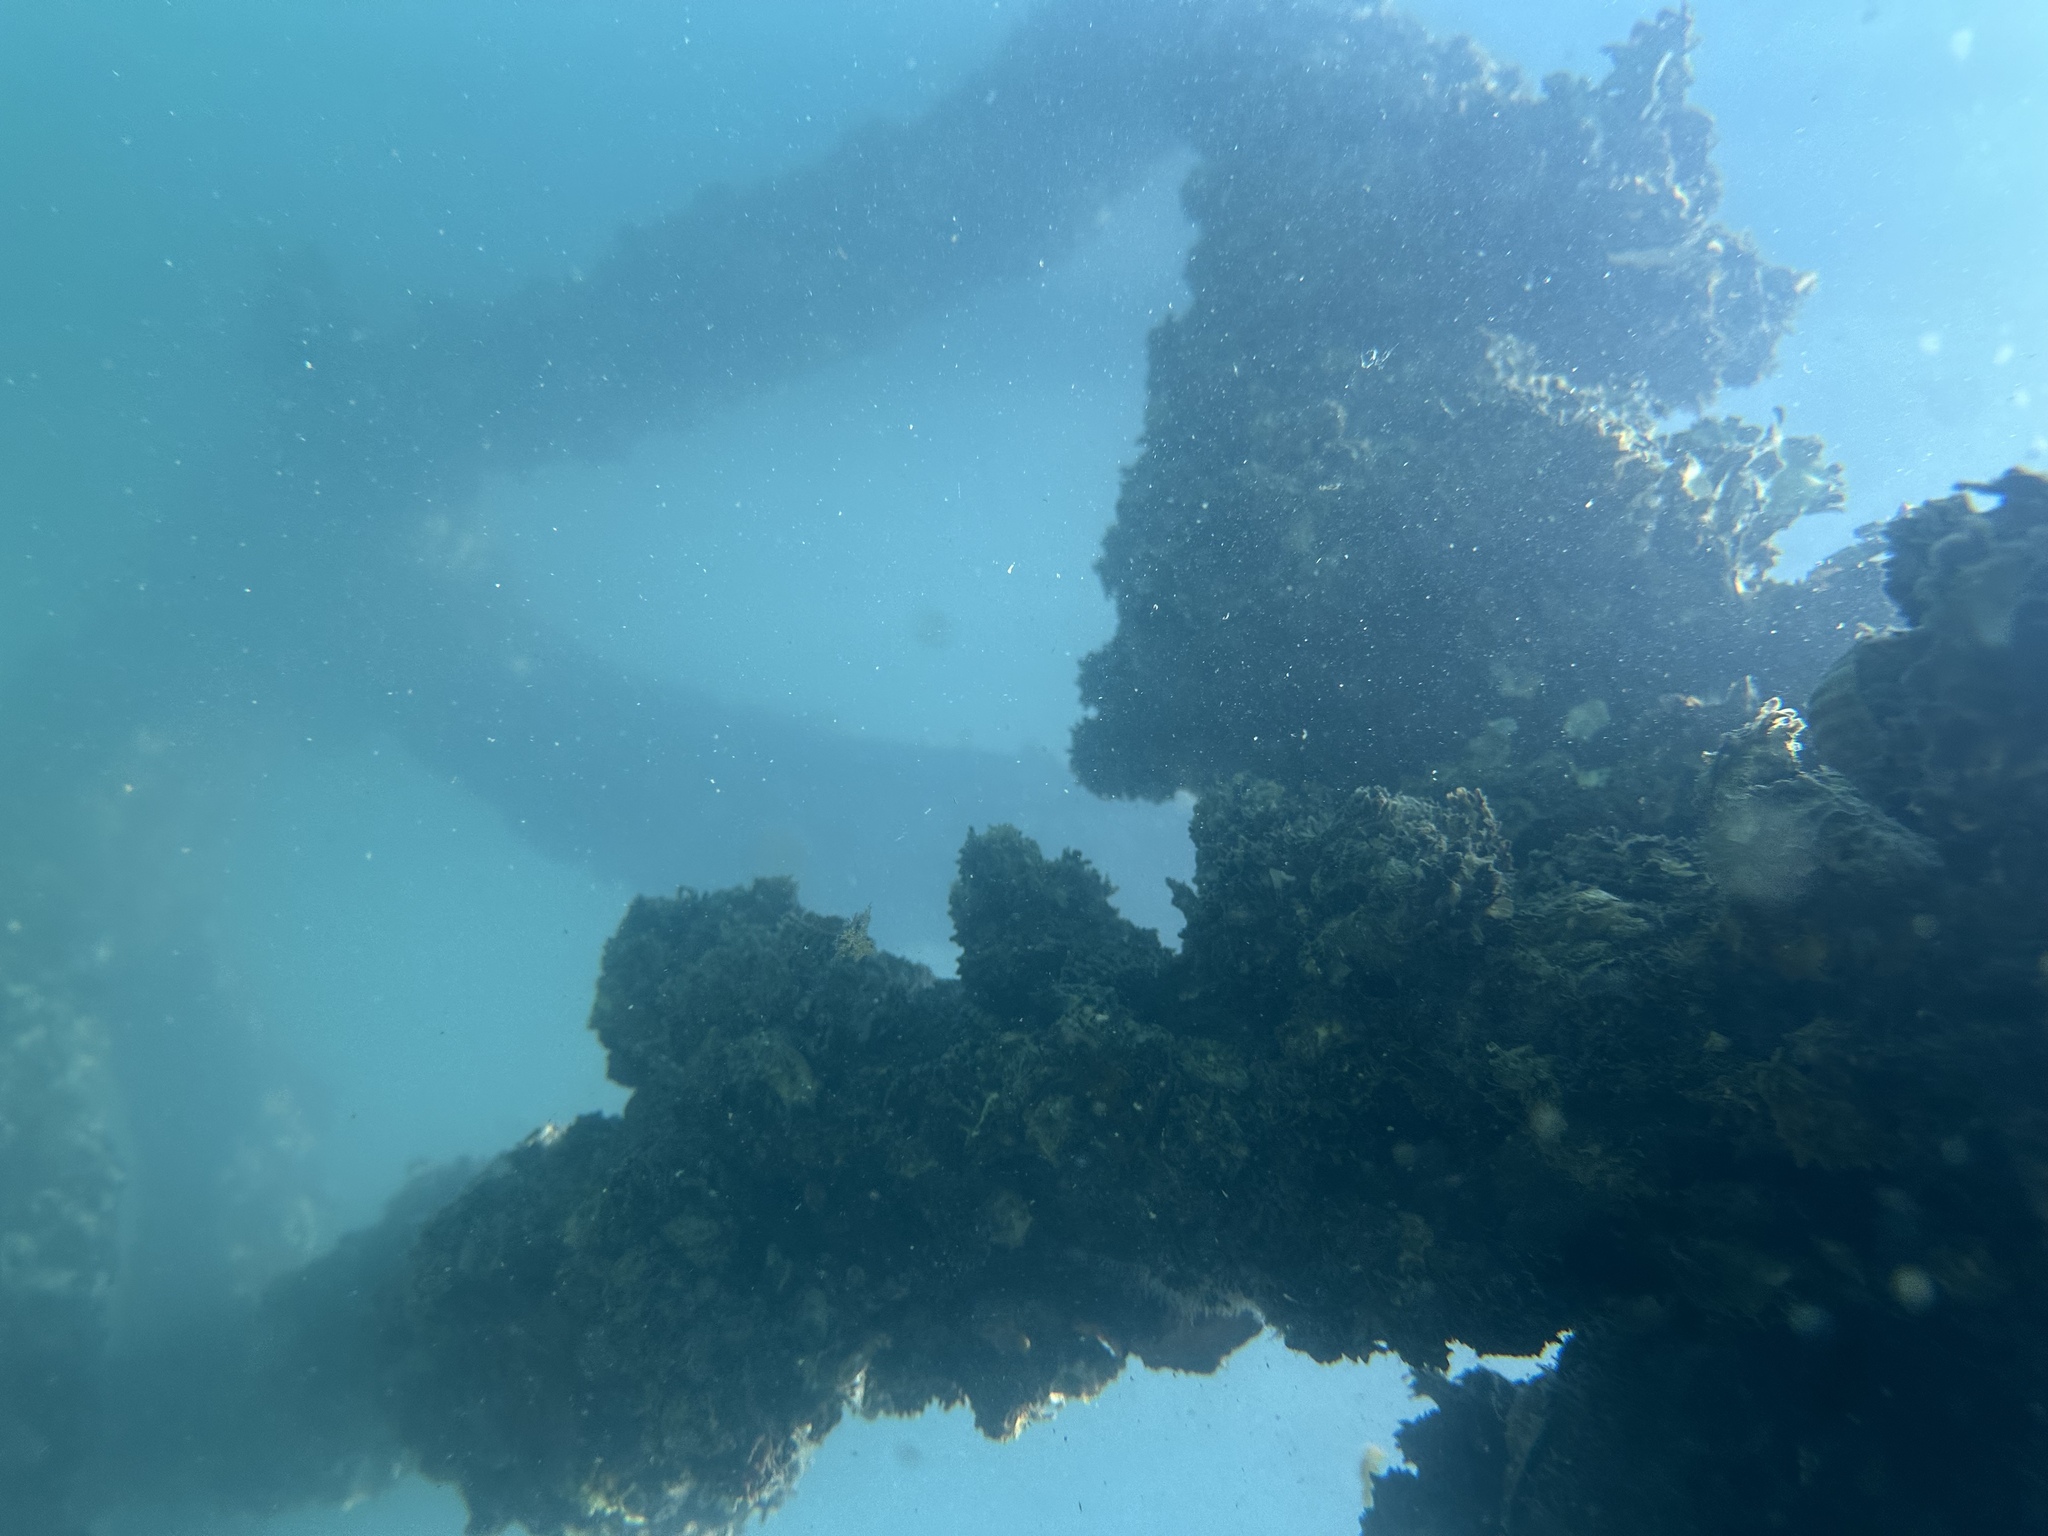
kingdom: Animalia
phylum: Mollusca
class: Bivalvia
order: Ostreida
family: Ostreidae
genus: Magallana
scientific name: Magallana gigas
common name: Pacific oyster
